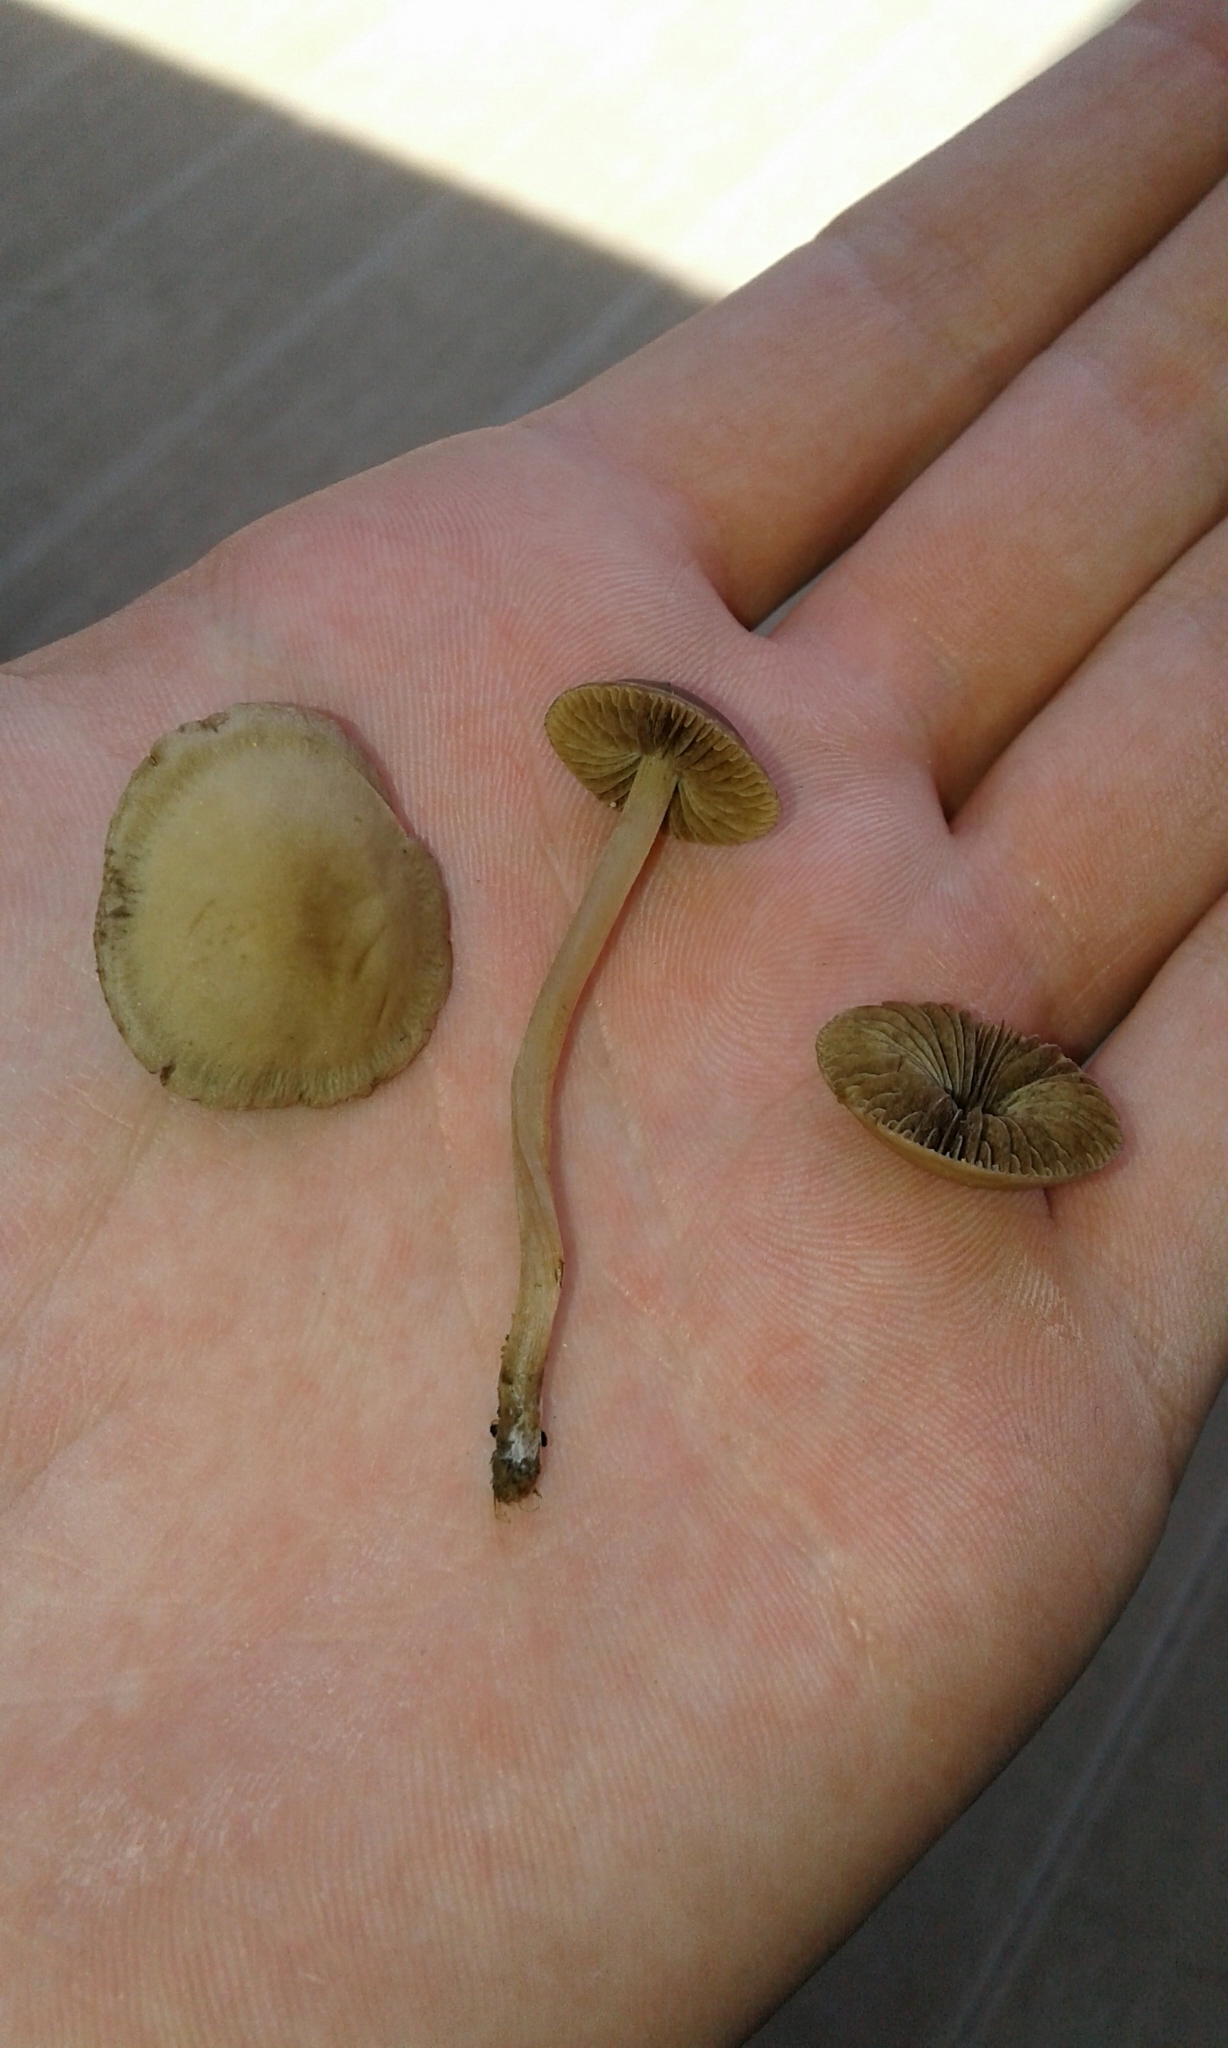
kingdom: Fungi
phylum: Basidiomycota
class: Agaricomycetes
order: Agaricales
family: Strophariaceae
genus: Agrocybe
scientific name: Agrocybe pediades
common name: Common fieldcap
